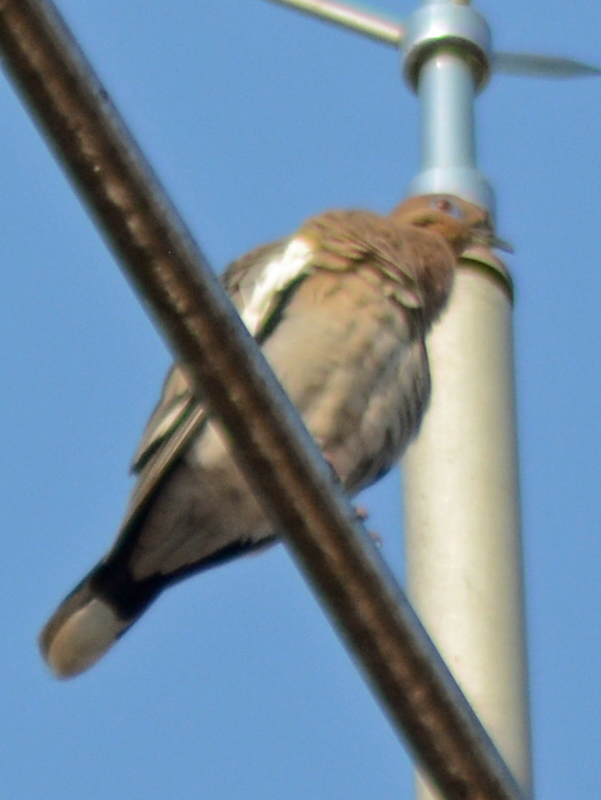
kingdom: Animalia
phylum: Chordata
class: Aves
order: Columbiformes
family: Columbidae
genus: Zenaida
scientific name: Zenaida asiatica
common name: White-winged dove
